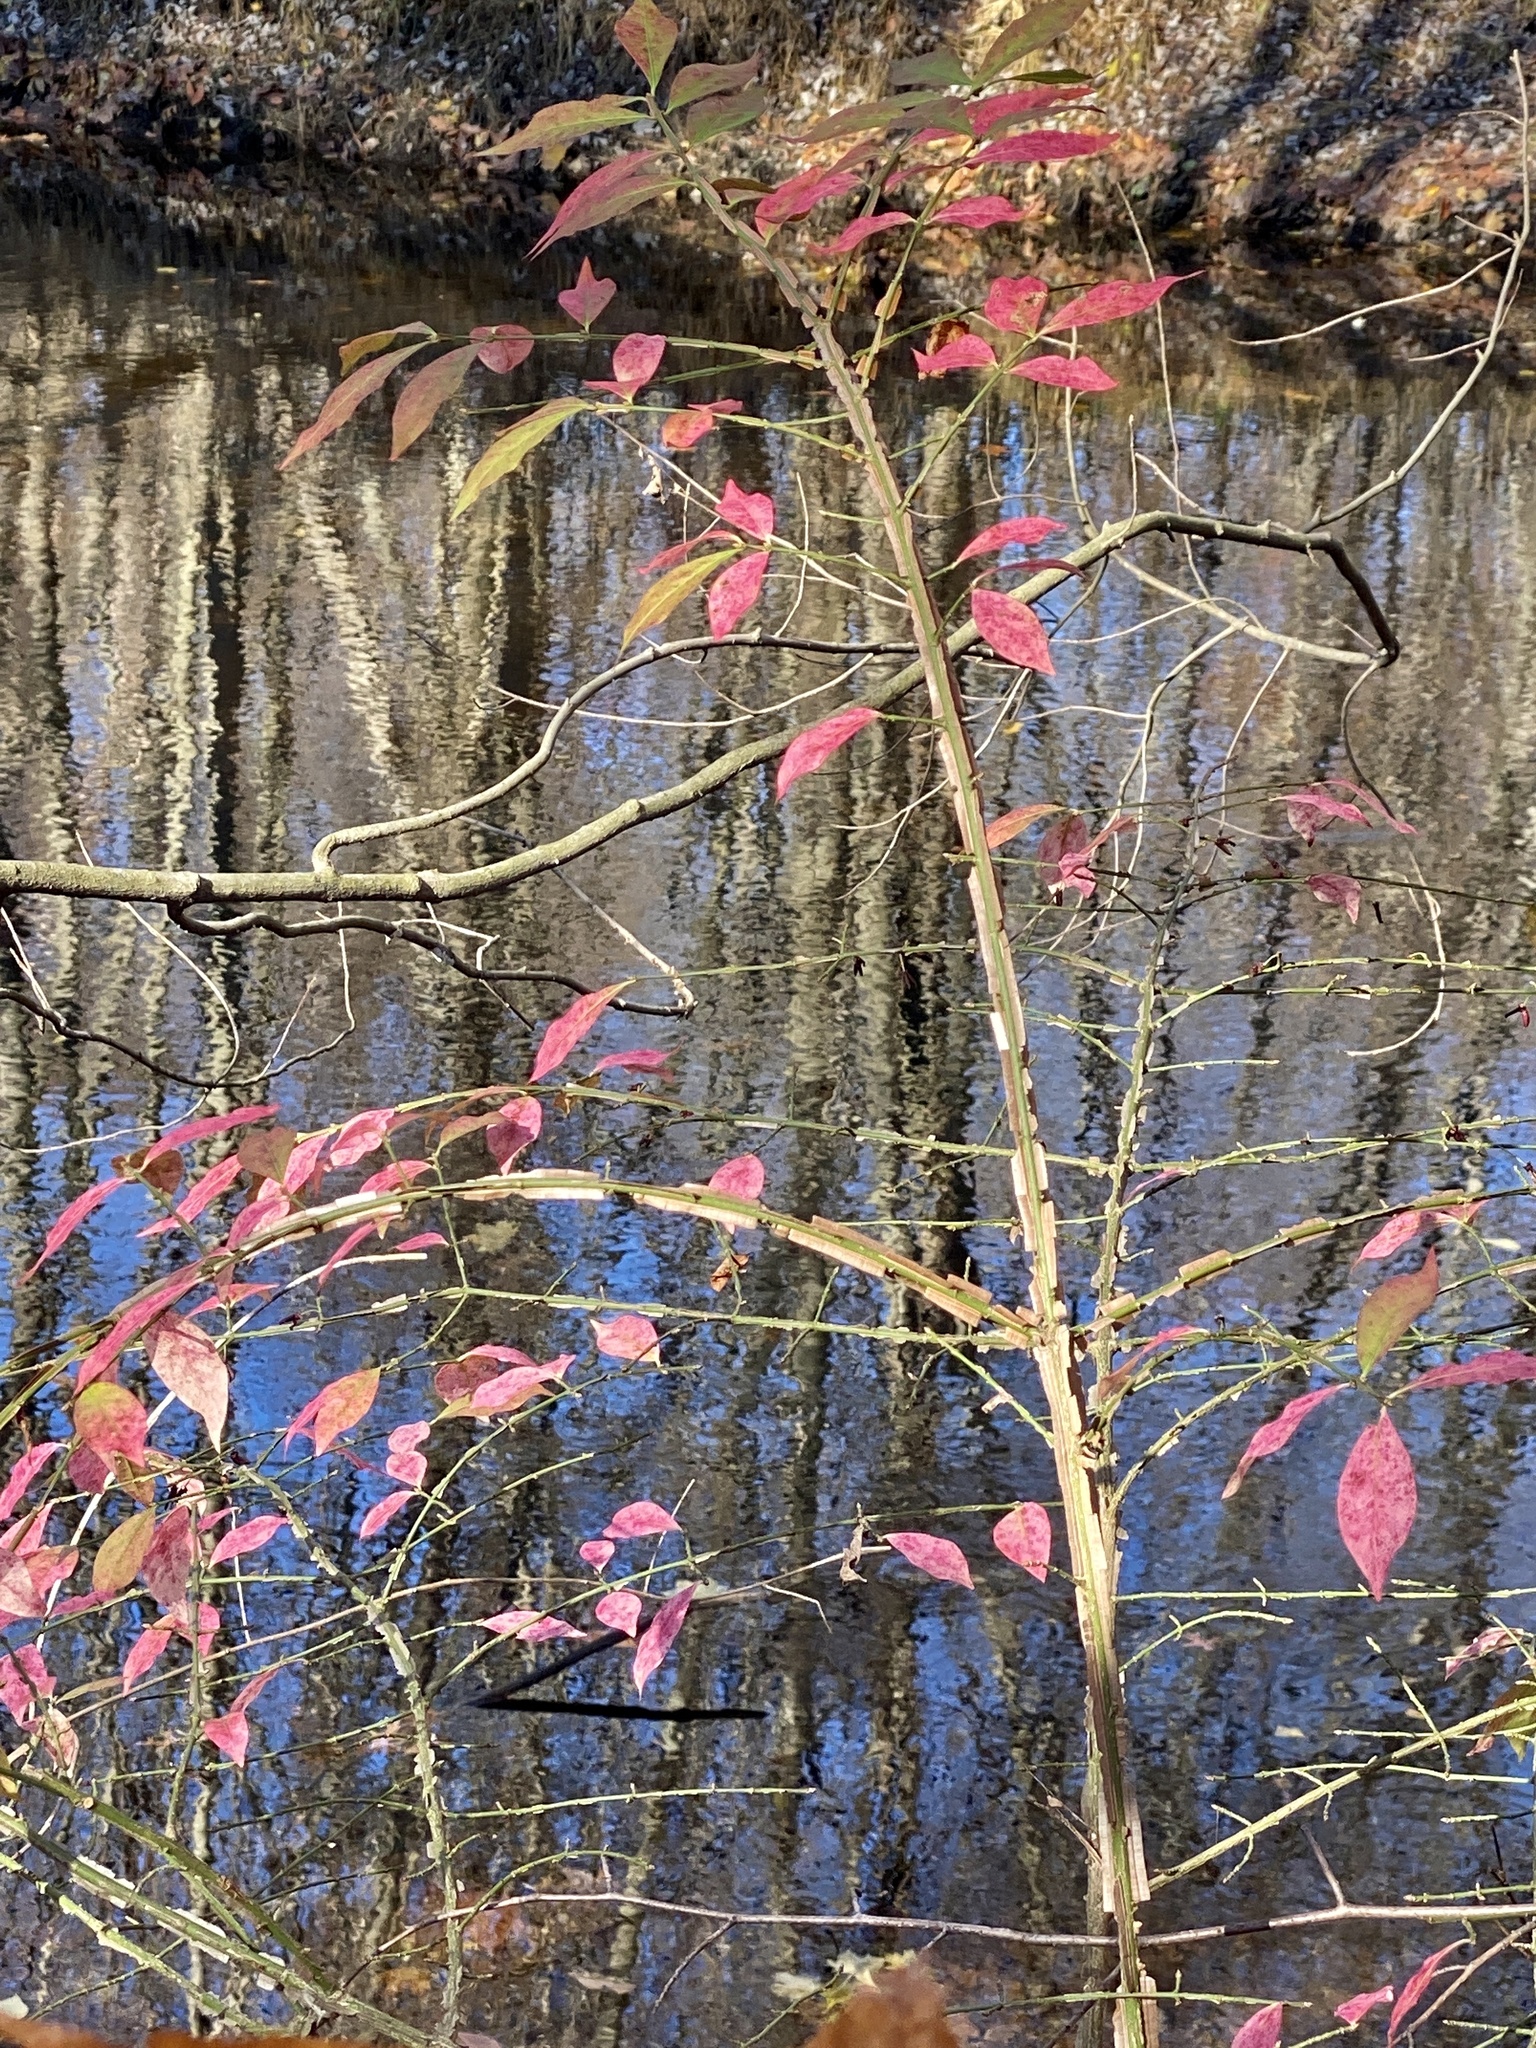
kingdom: Plantae
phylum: Tracheophyta
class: Magnoliopsida
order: Celastrales
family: Celastraceae
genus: Euonymus
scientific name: Euonymus alatus
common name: Winged euonymus
